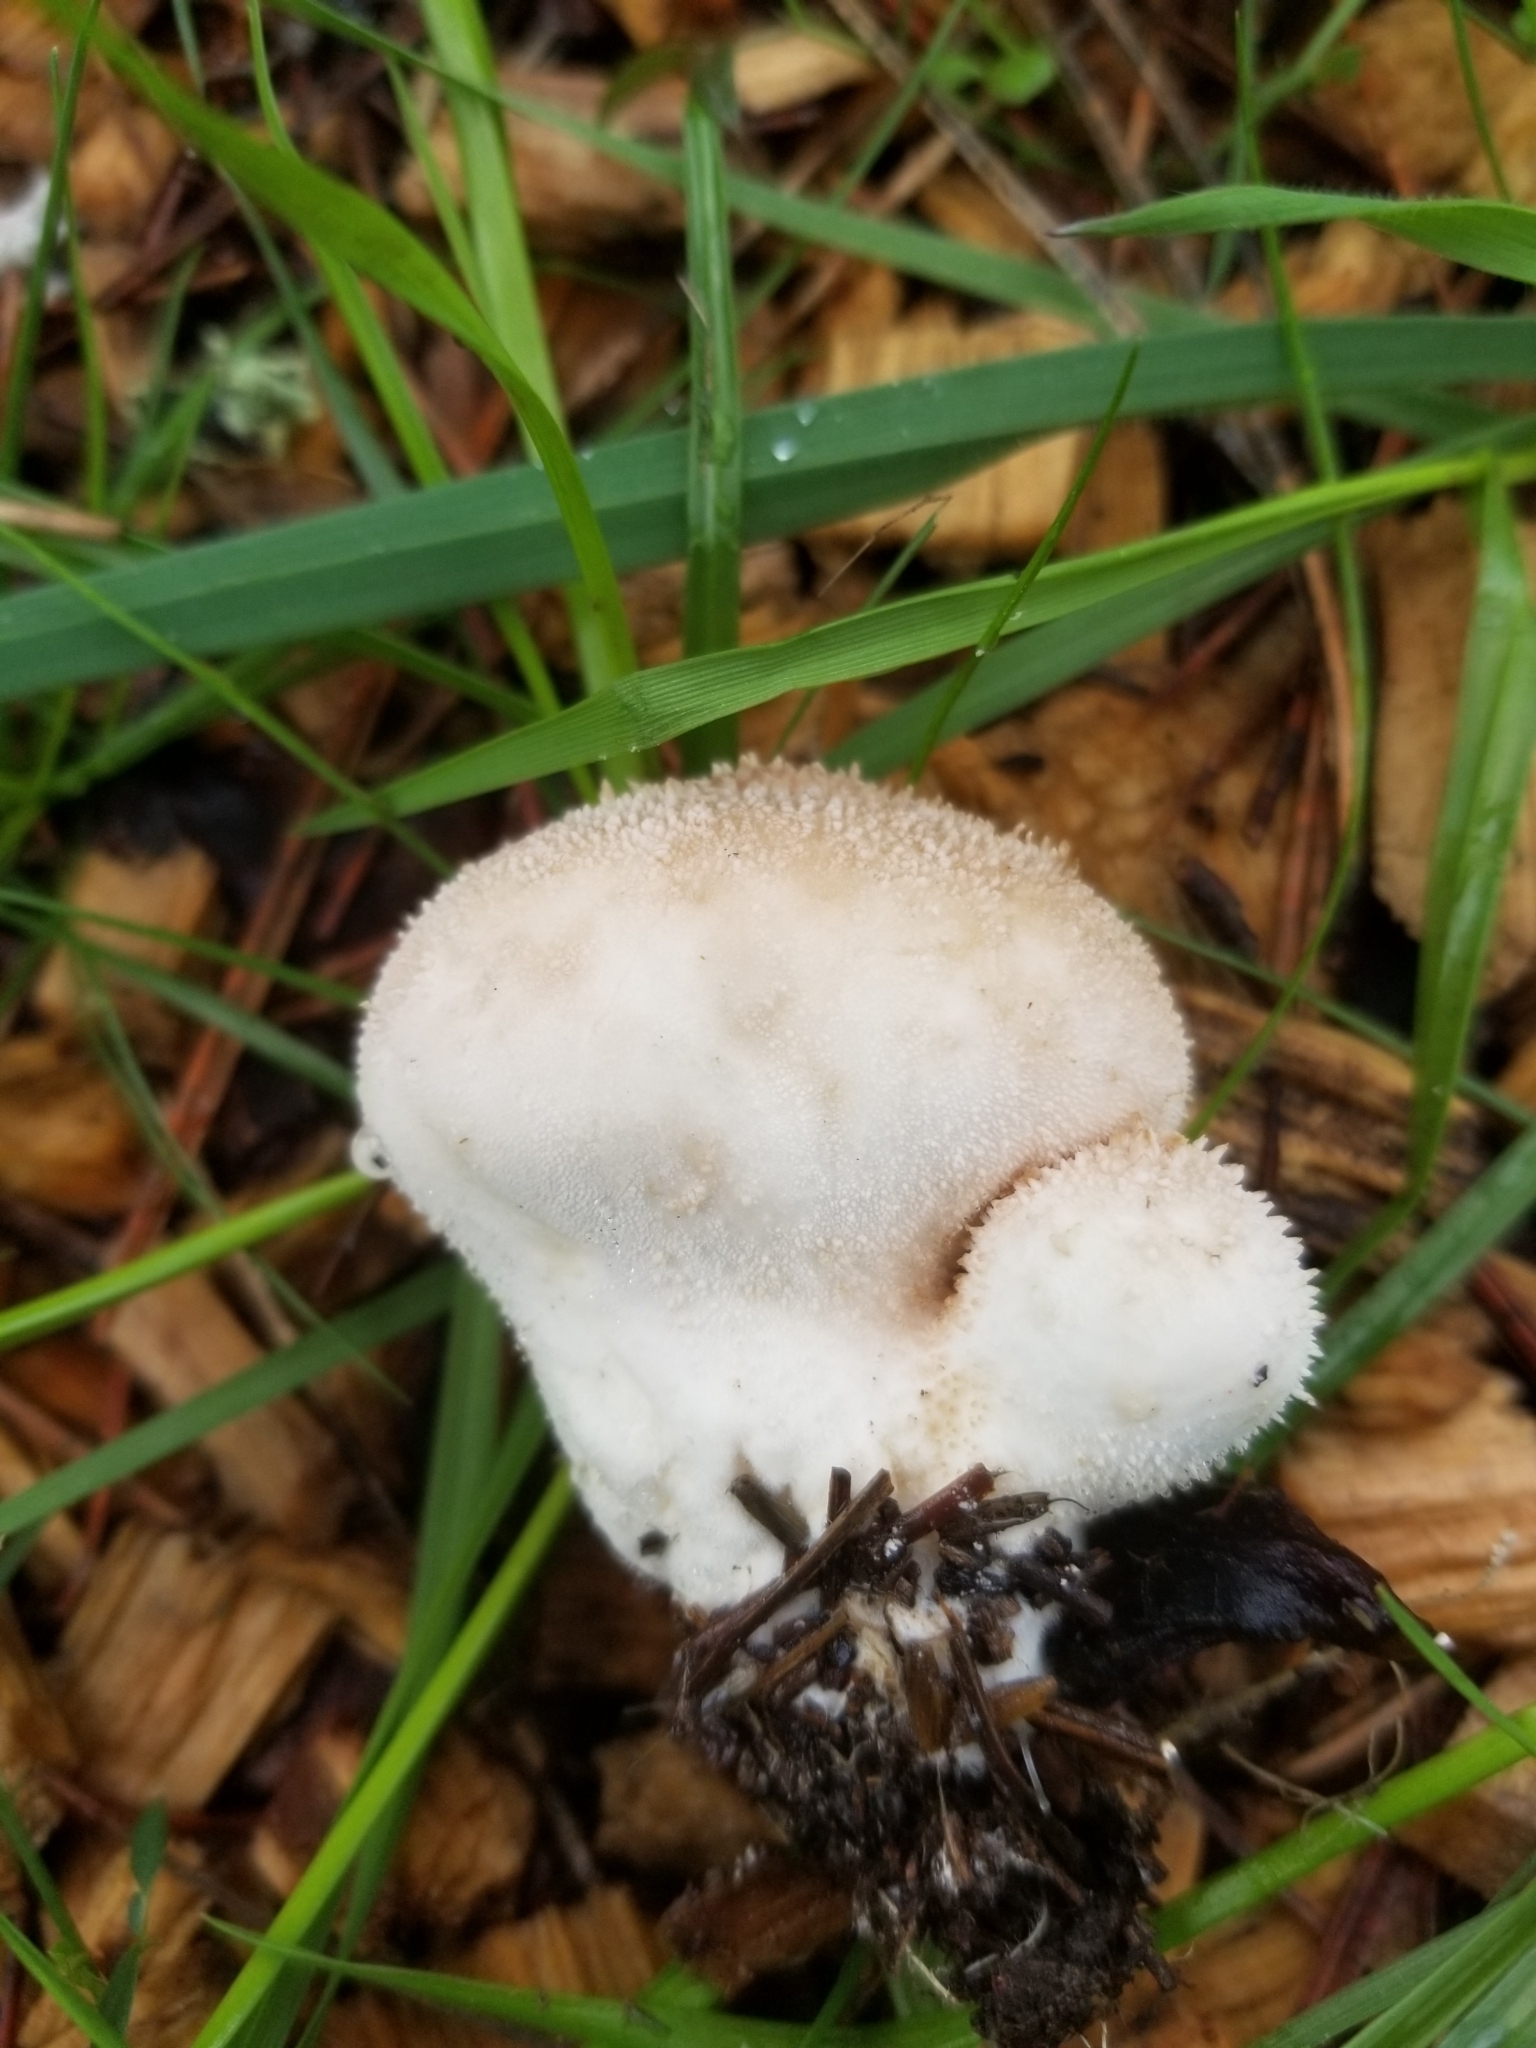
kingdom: Fungi
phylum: Basidiomycota
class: Agaricomycetes
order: Agaricales
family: Lycoperdaceae
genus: Lycoperdon
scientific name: Lycoperdon perlatum
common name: Common puffball
